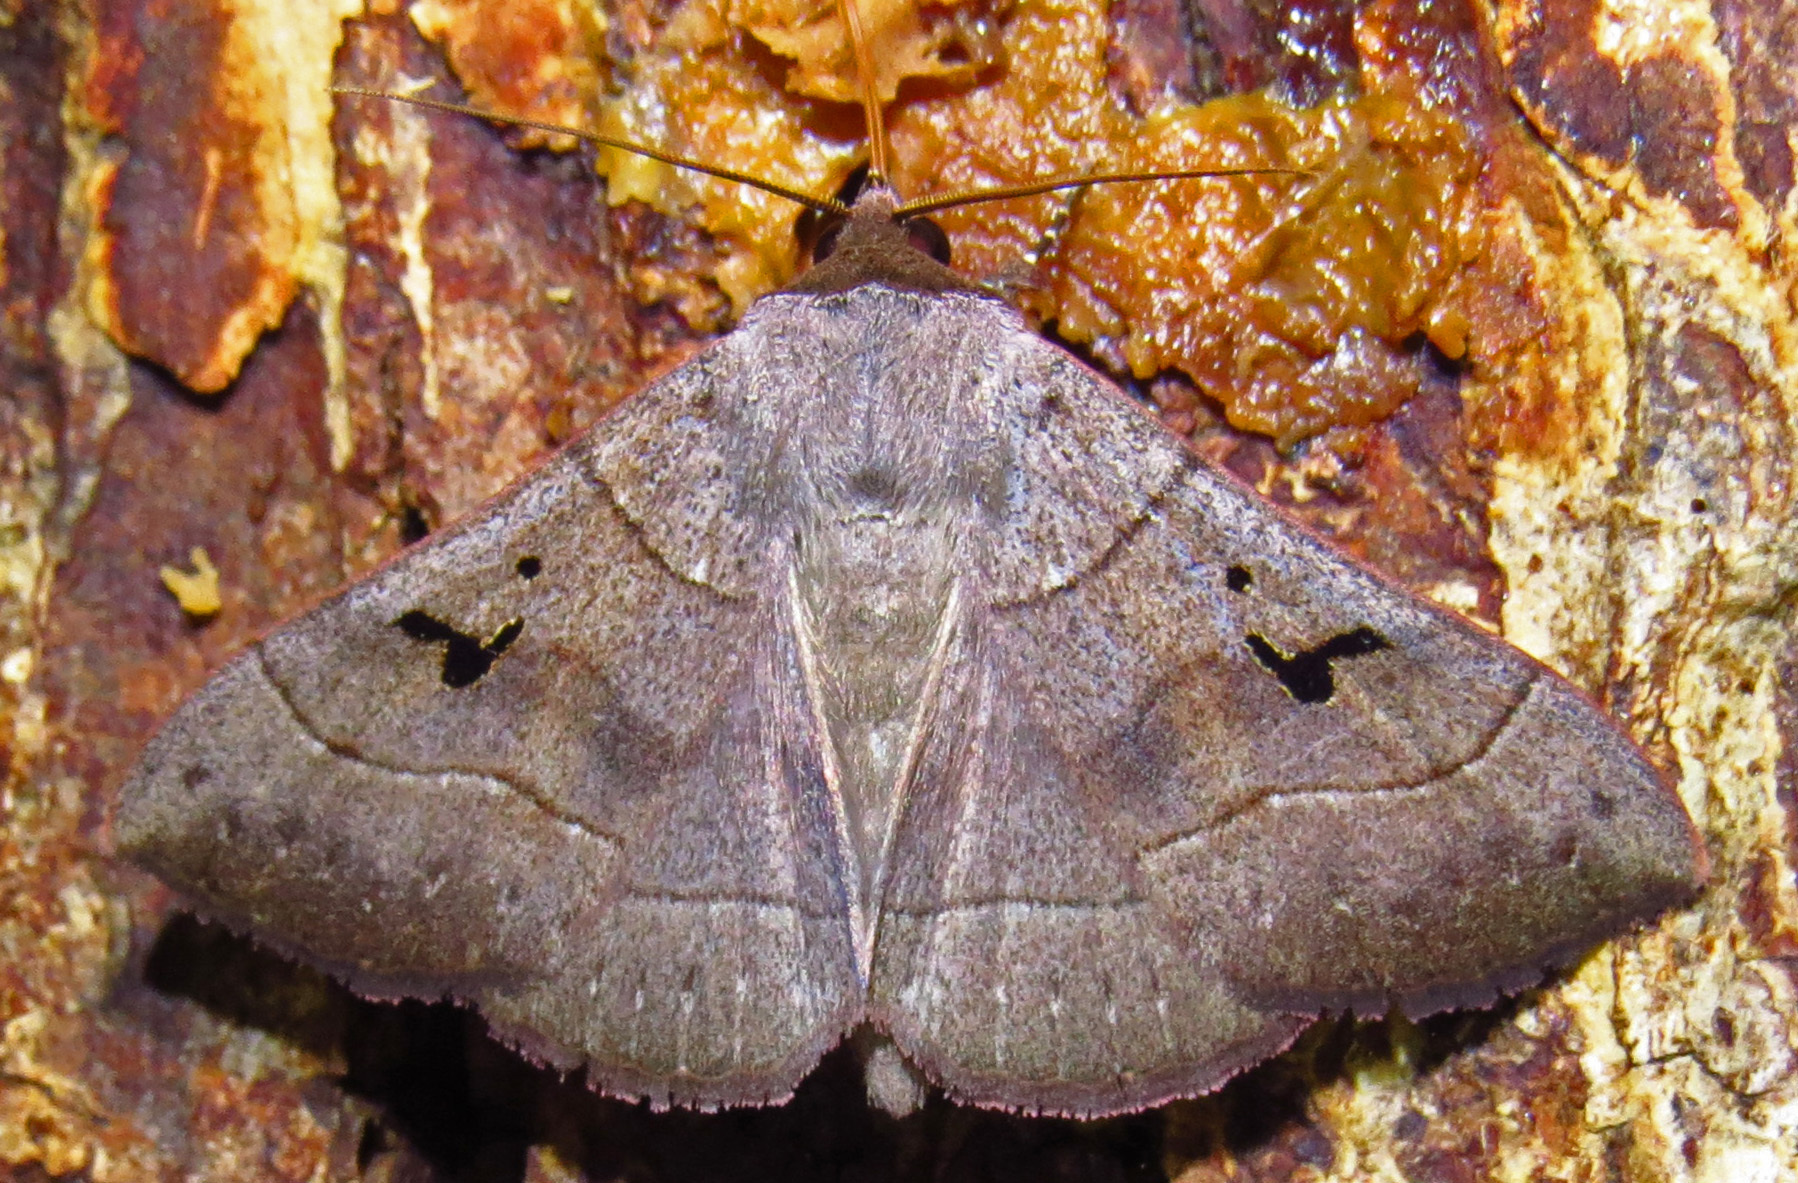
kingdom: Animalia
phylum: Arthropoda
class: Insecta
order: Lepidoptera
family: Erebidae
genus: Panopoda
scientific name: Panopoda carneicosta
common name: Brown panopoda moth
